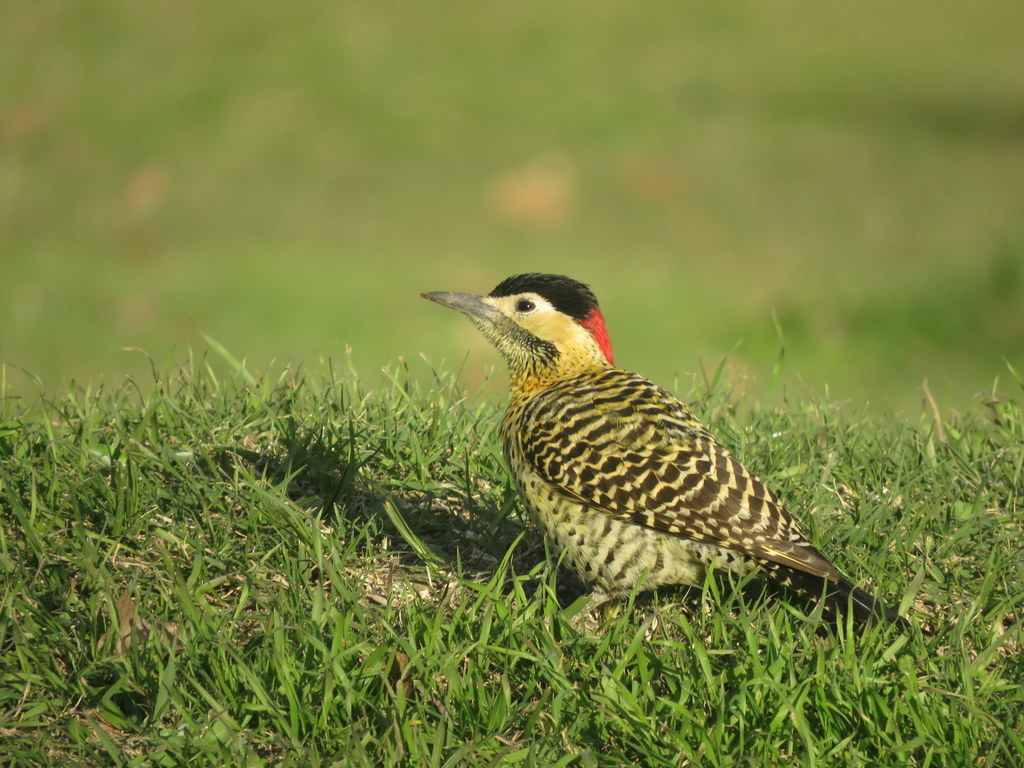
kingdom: Animalia
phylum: Chordata
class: Aves
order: Piciformes
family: Picidae
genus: Colaptes
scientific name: Colaptes melanochloros
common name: Green-barred woodpecker
